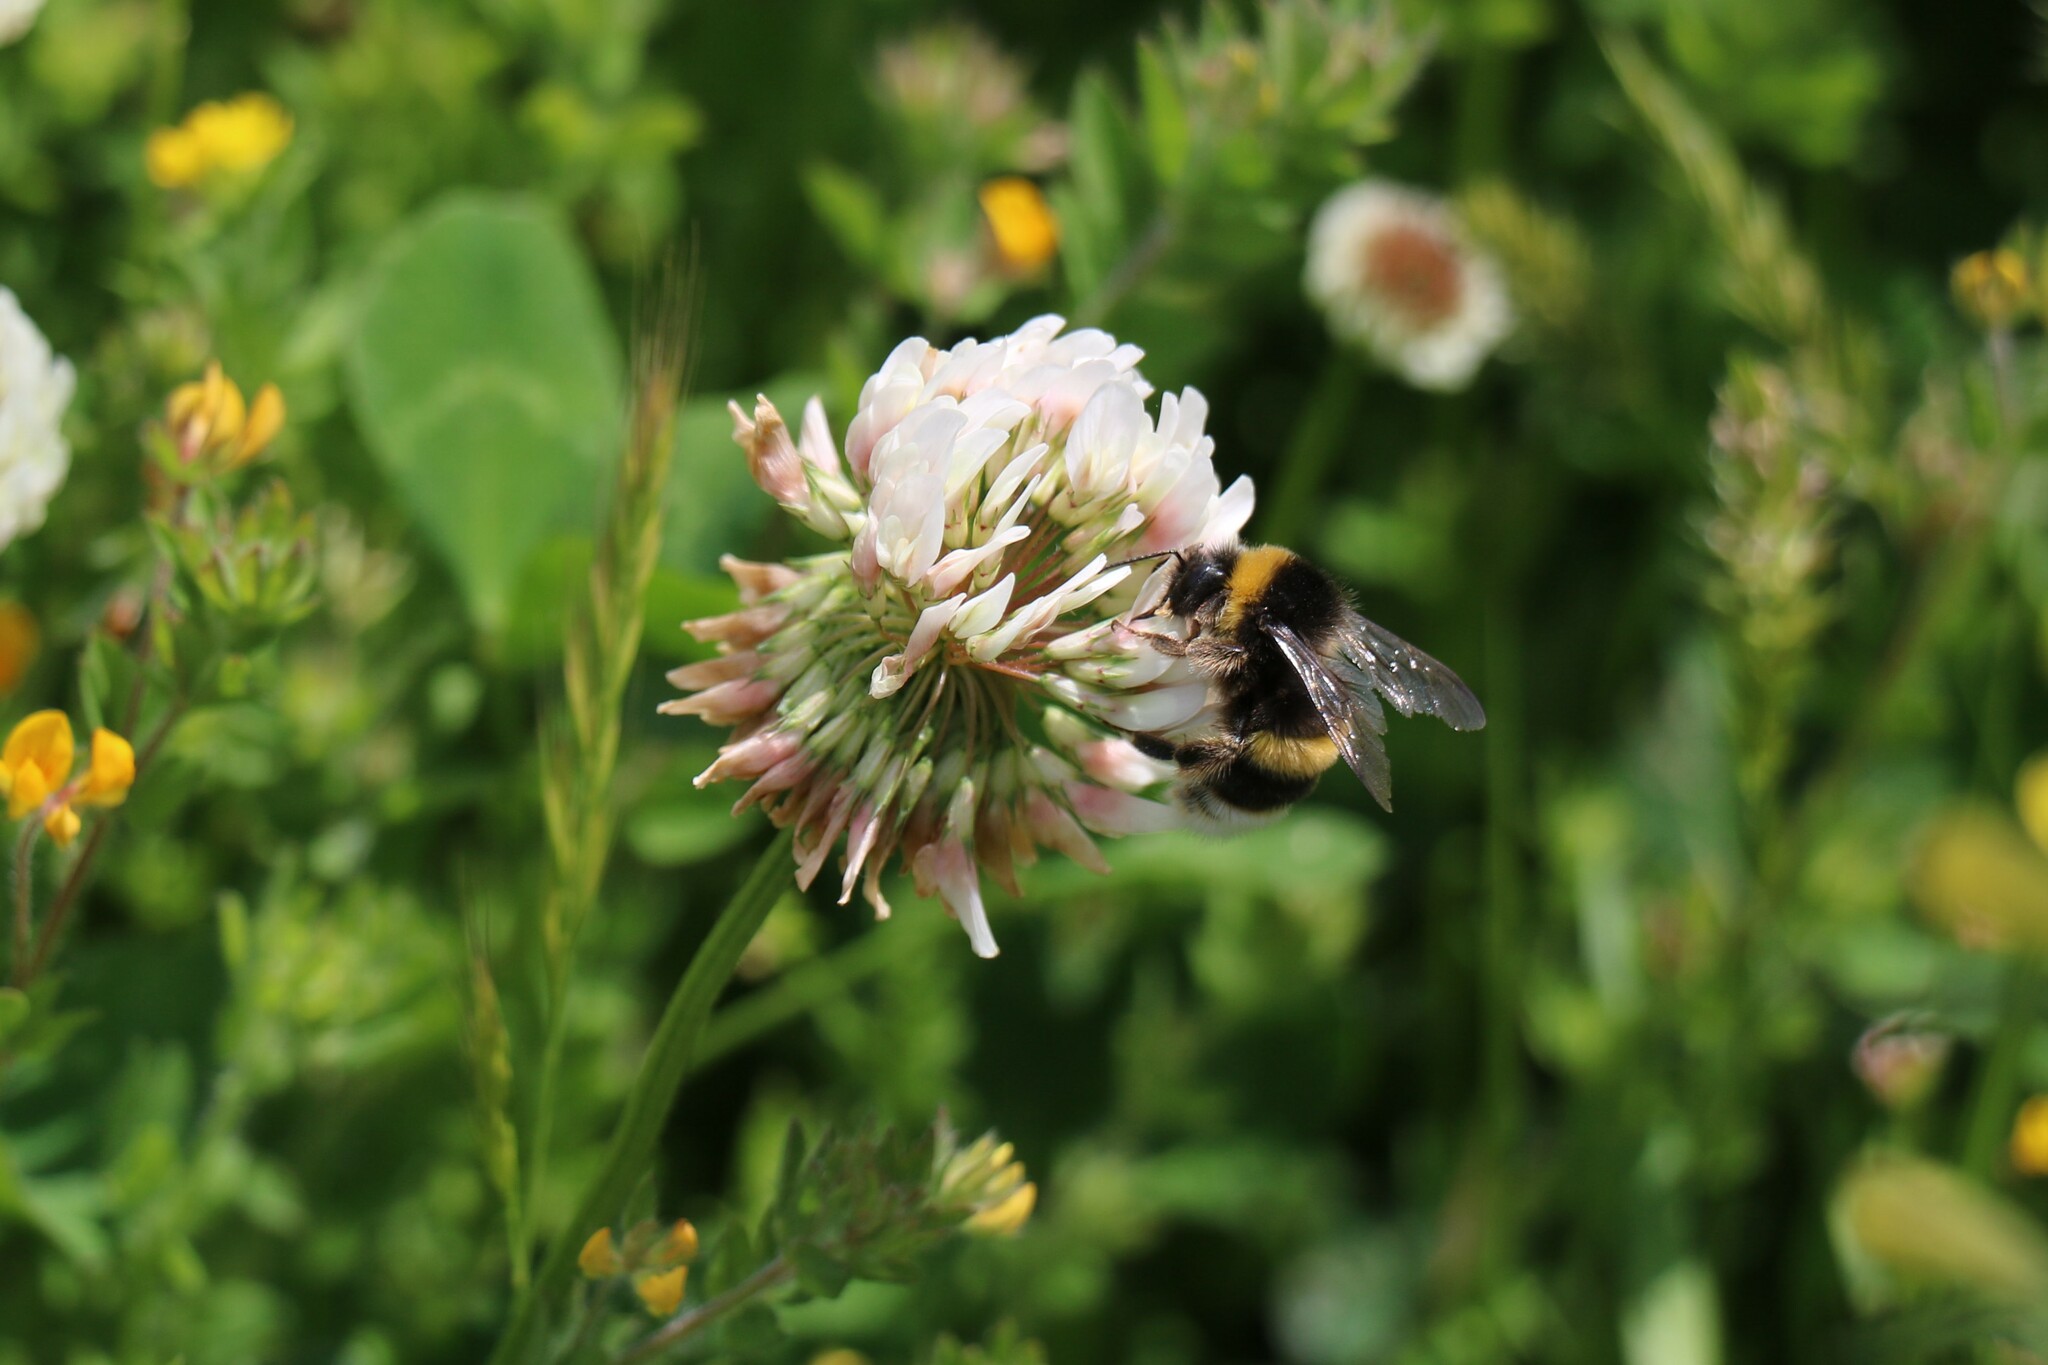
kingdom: Animalia
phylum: Arthropoda
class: Insecta
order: Hymenoptera
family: Apidae
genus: Bombus
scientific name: Bombus terrestris
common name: Buff-tailed bumblebee
